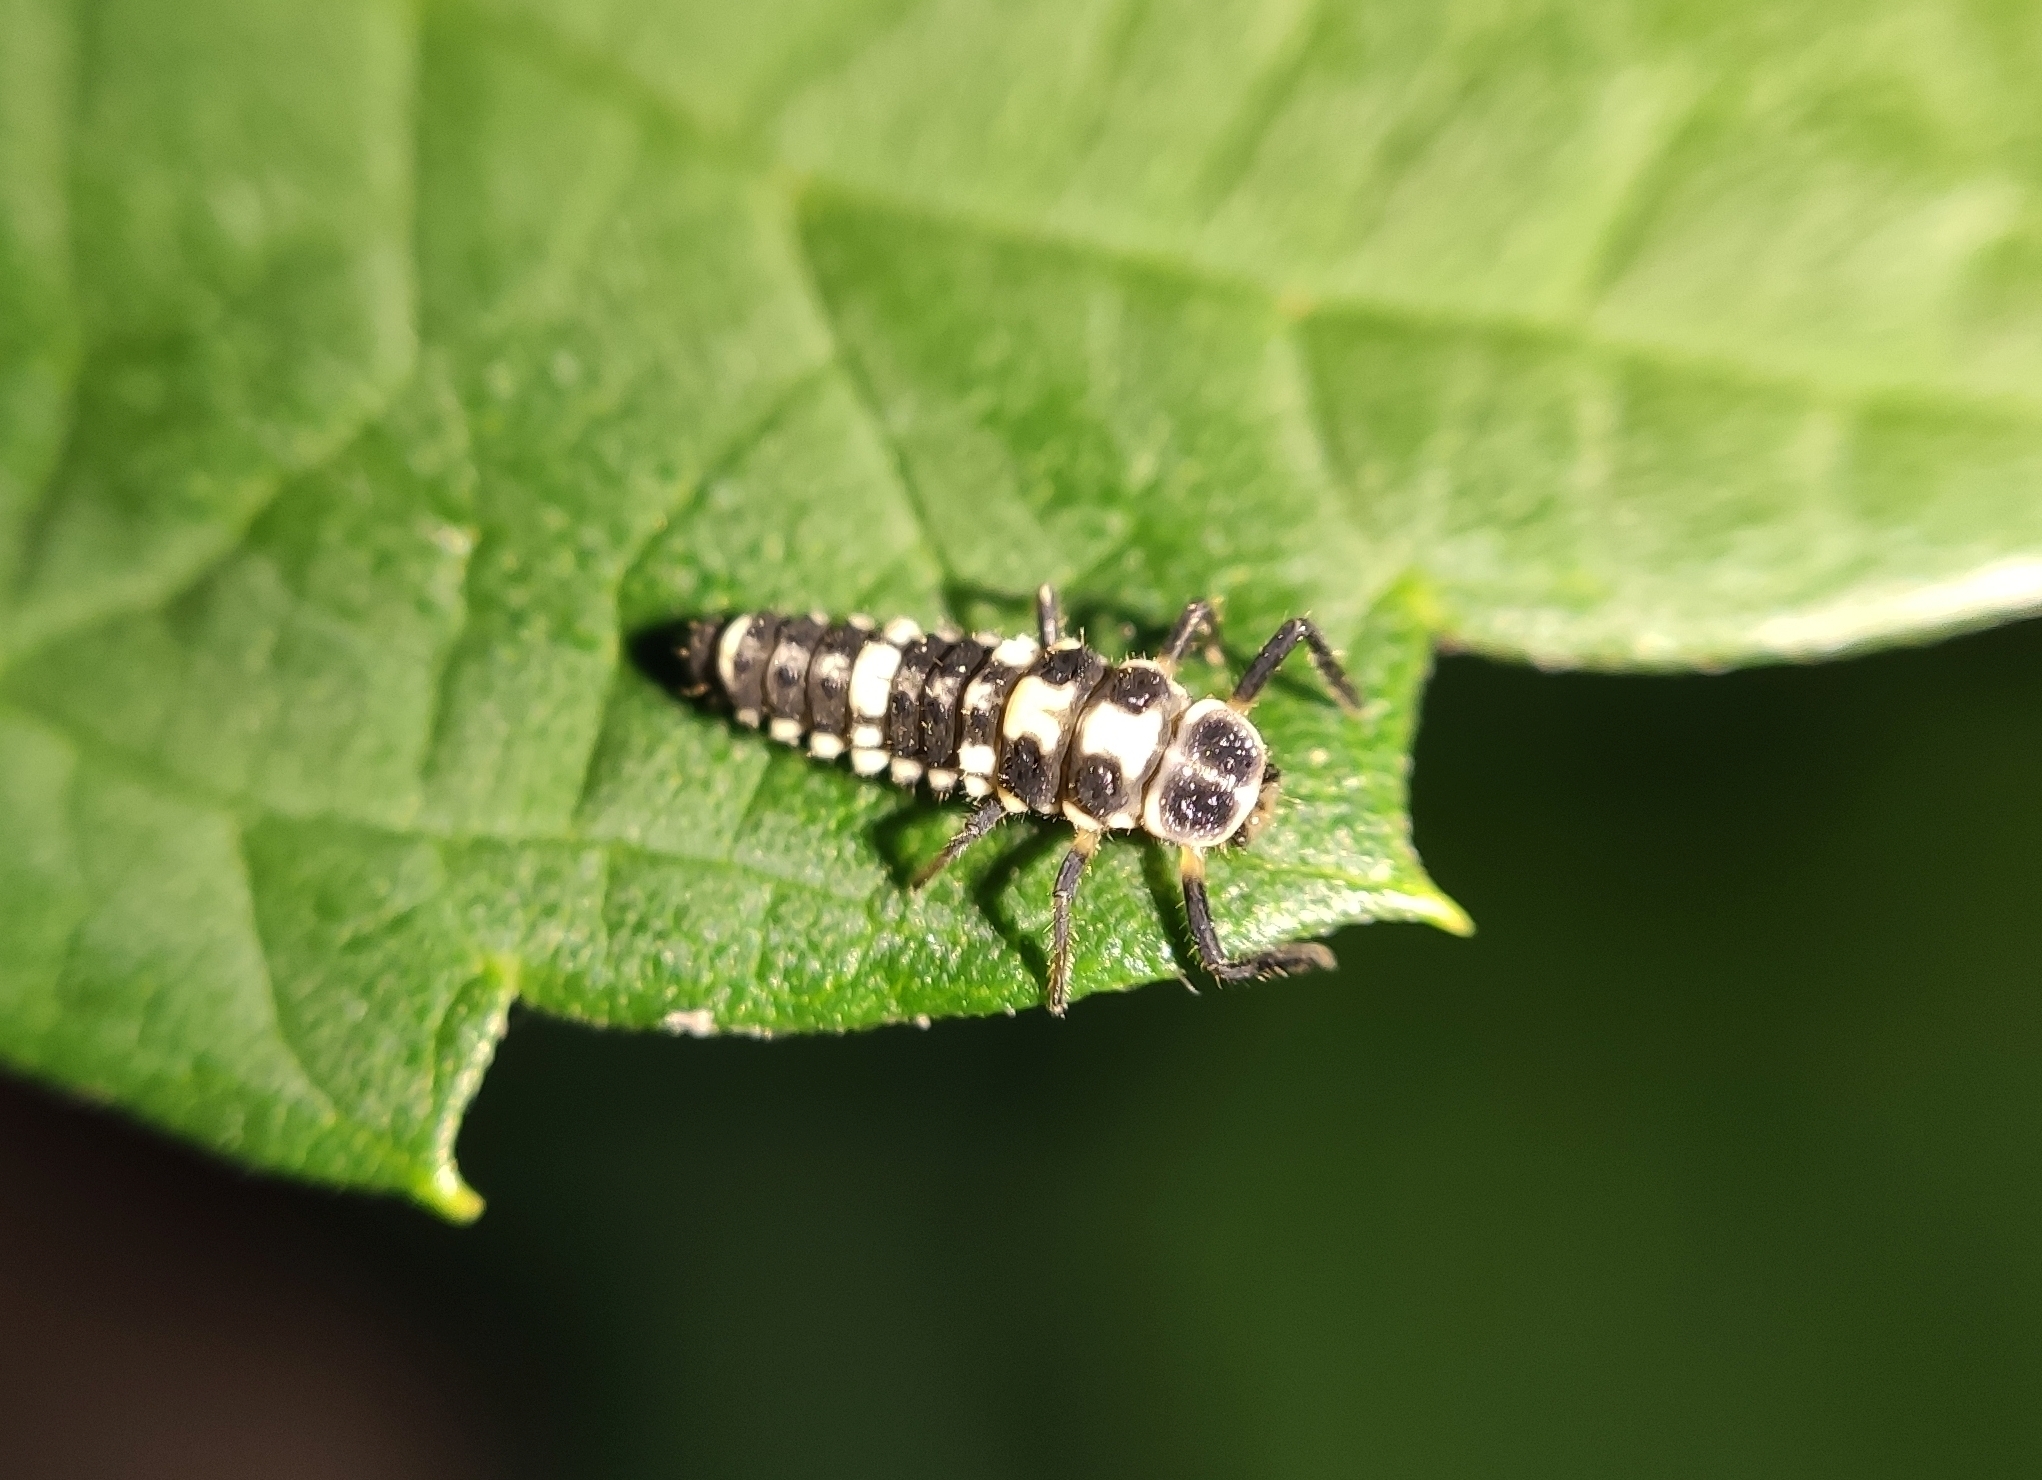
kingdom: Animalia
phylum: Arthropoda
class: Insecta
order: Coleoptera
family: Coccinellidae
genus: Propylaea
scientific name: Propylaea quatuordecimpunctata
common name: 14-spotted ladybird beetle
